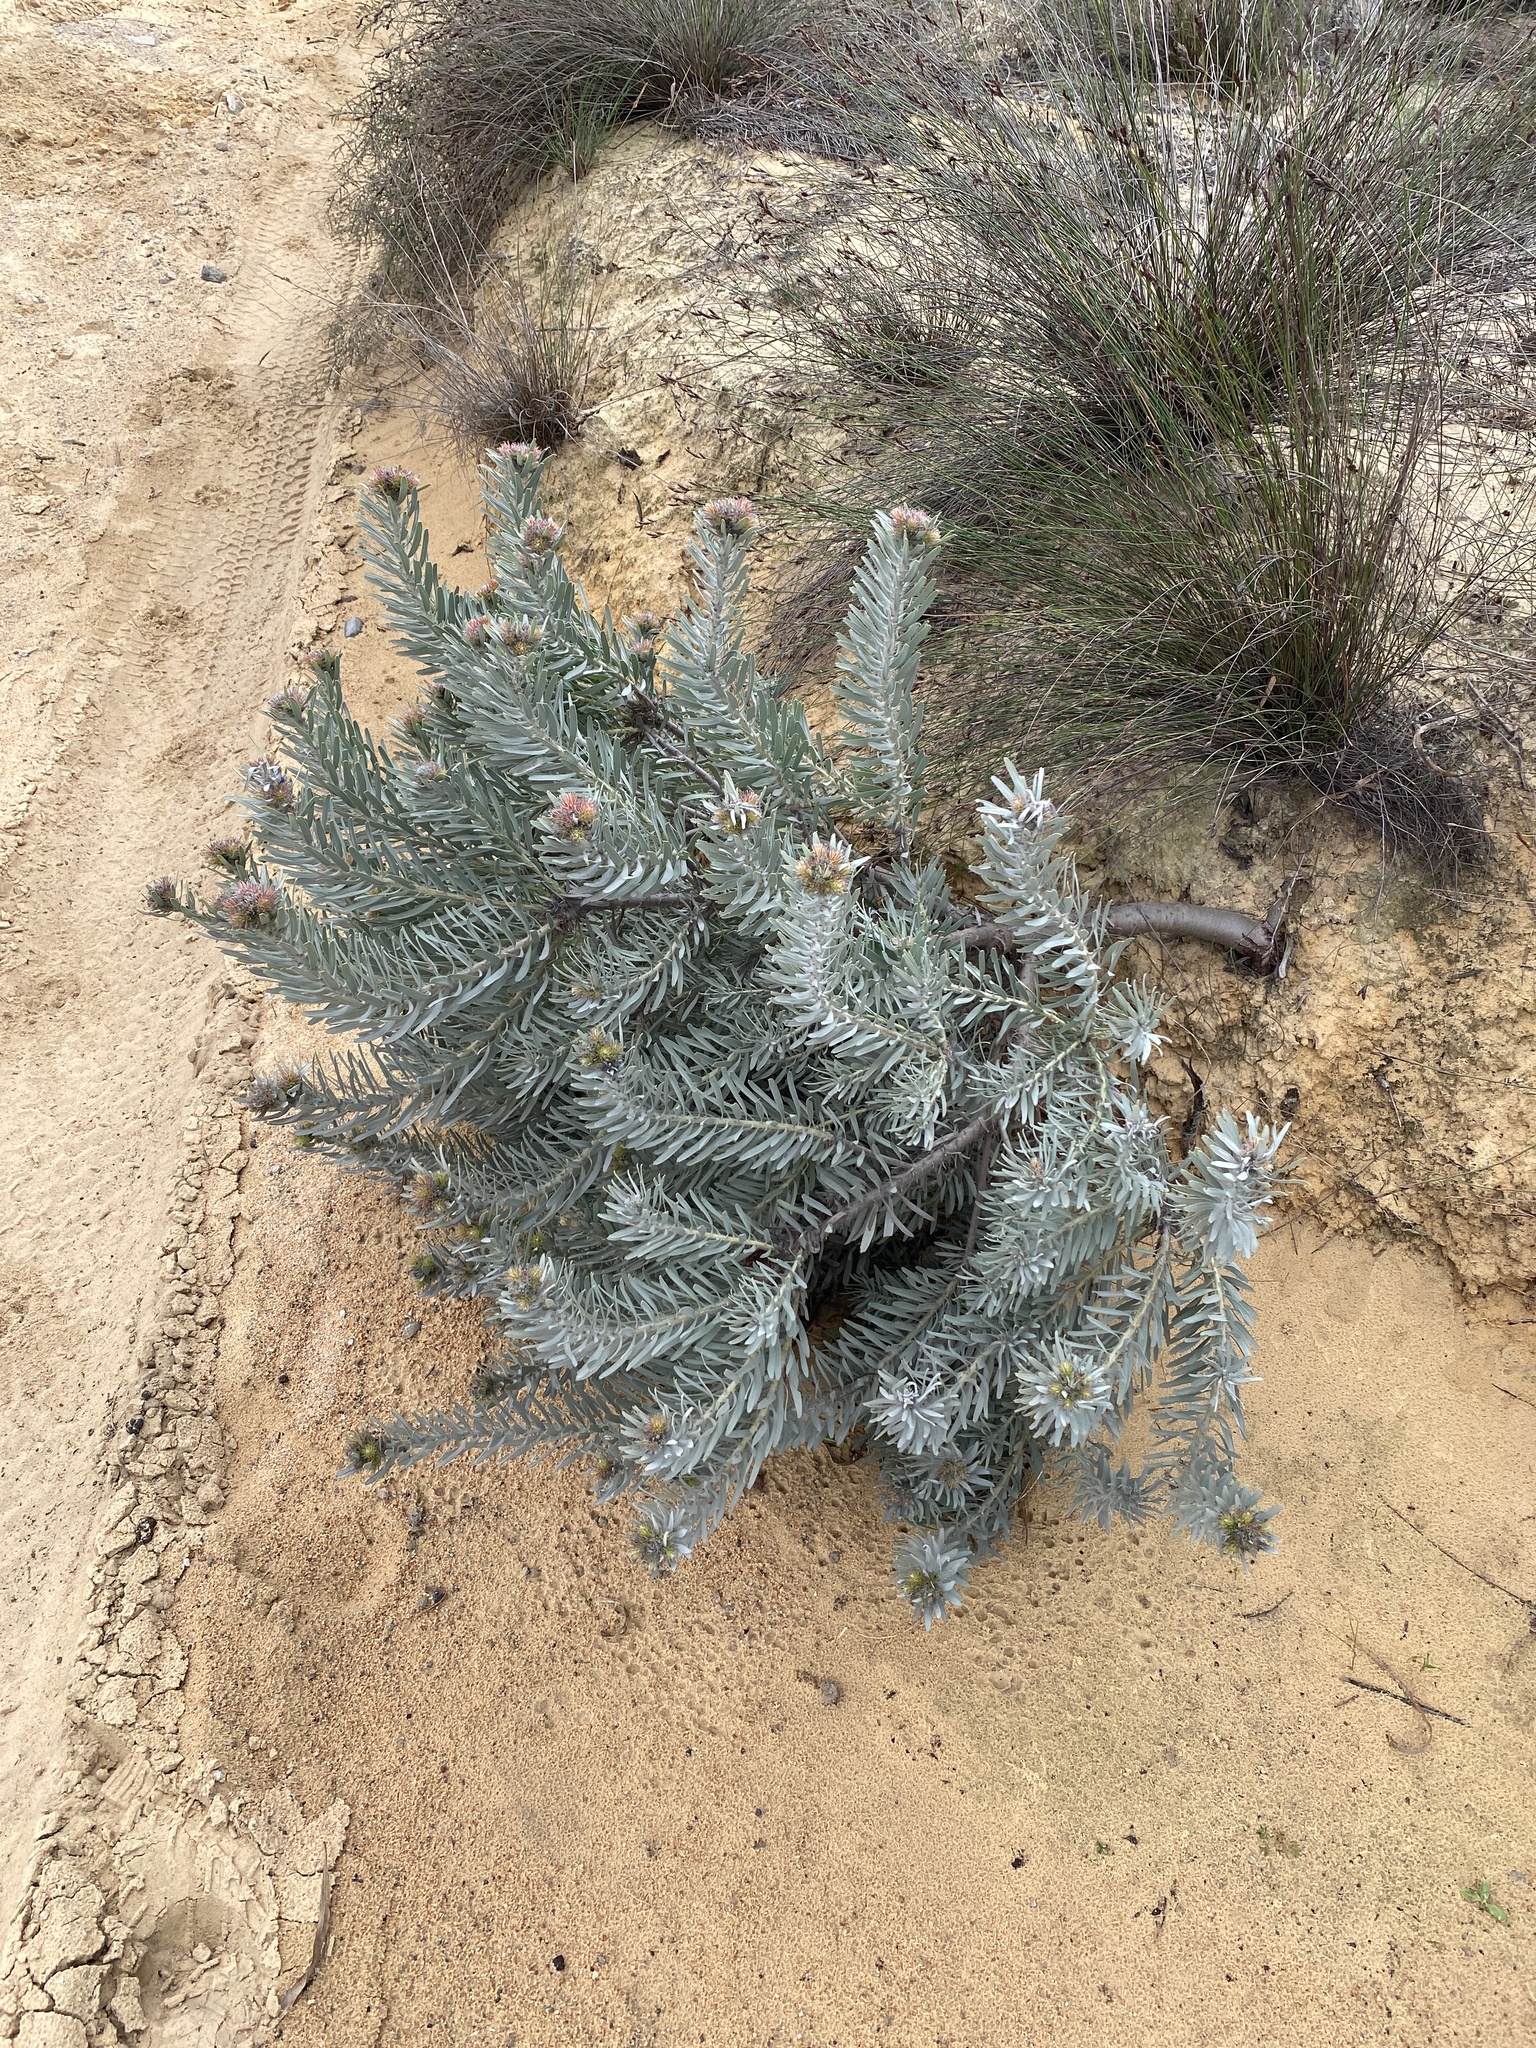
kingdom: Plantae
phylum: Tracheophyta
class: Magnoliopsida
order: Proteales
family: Proteaceae
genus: Leucospermum
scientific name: Leucospermum parile
